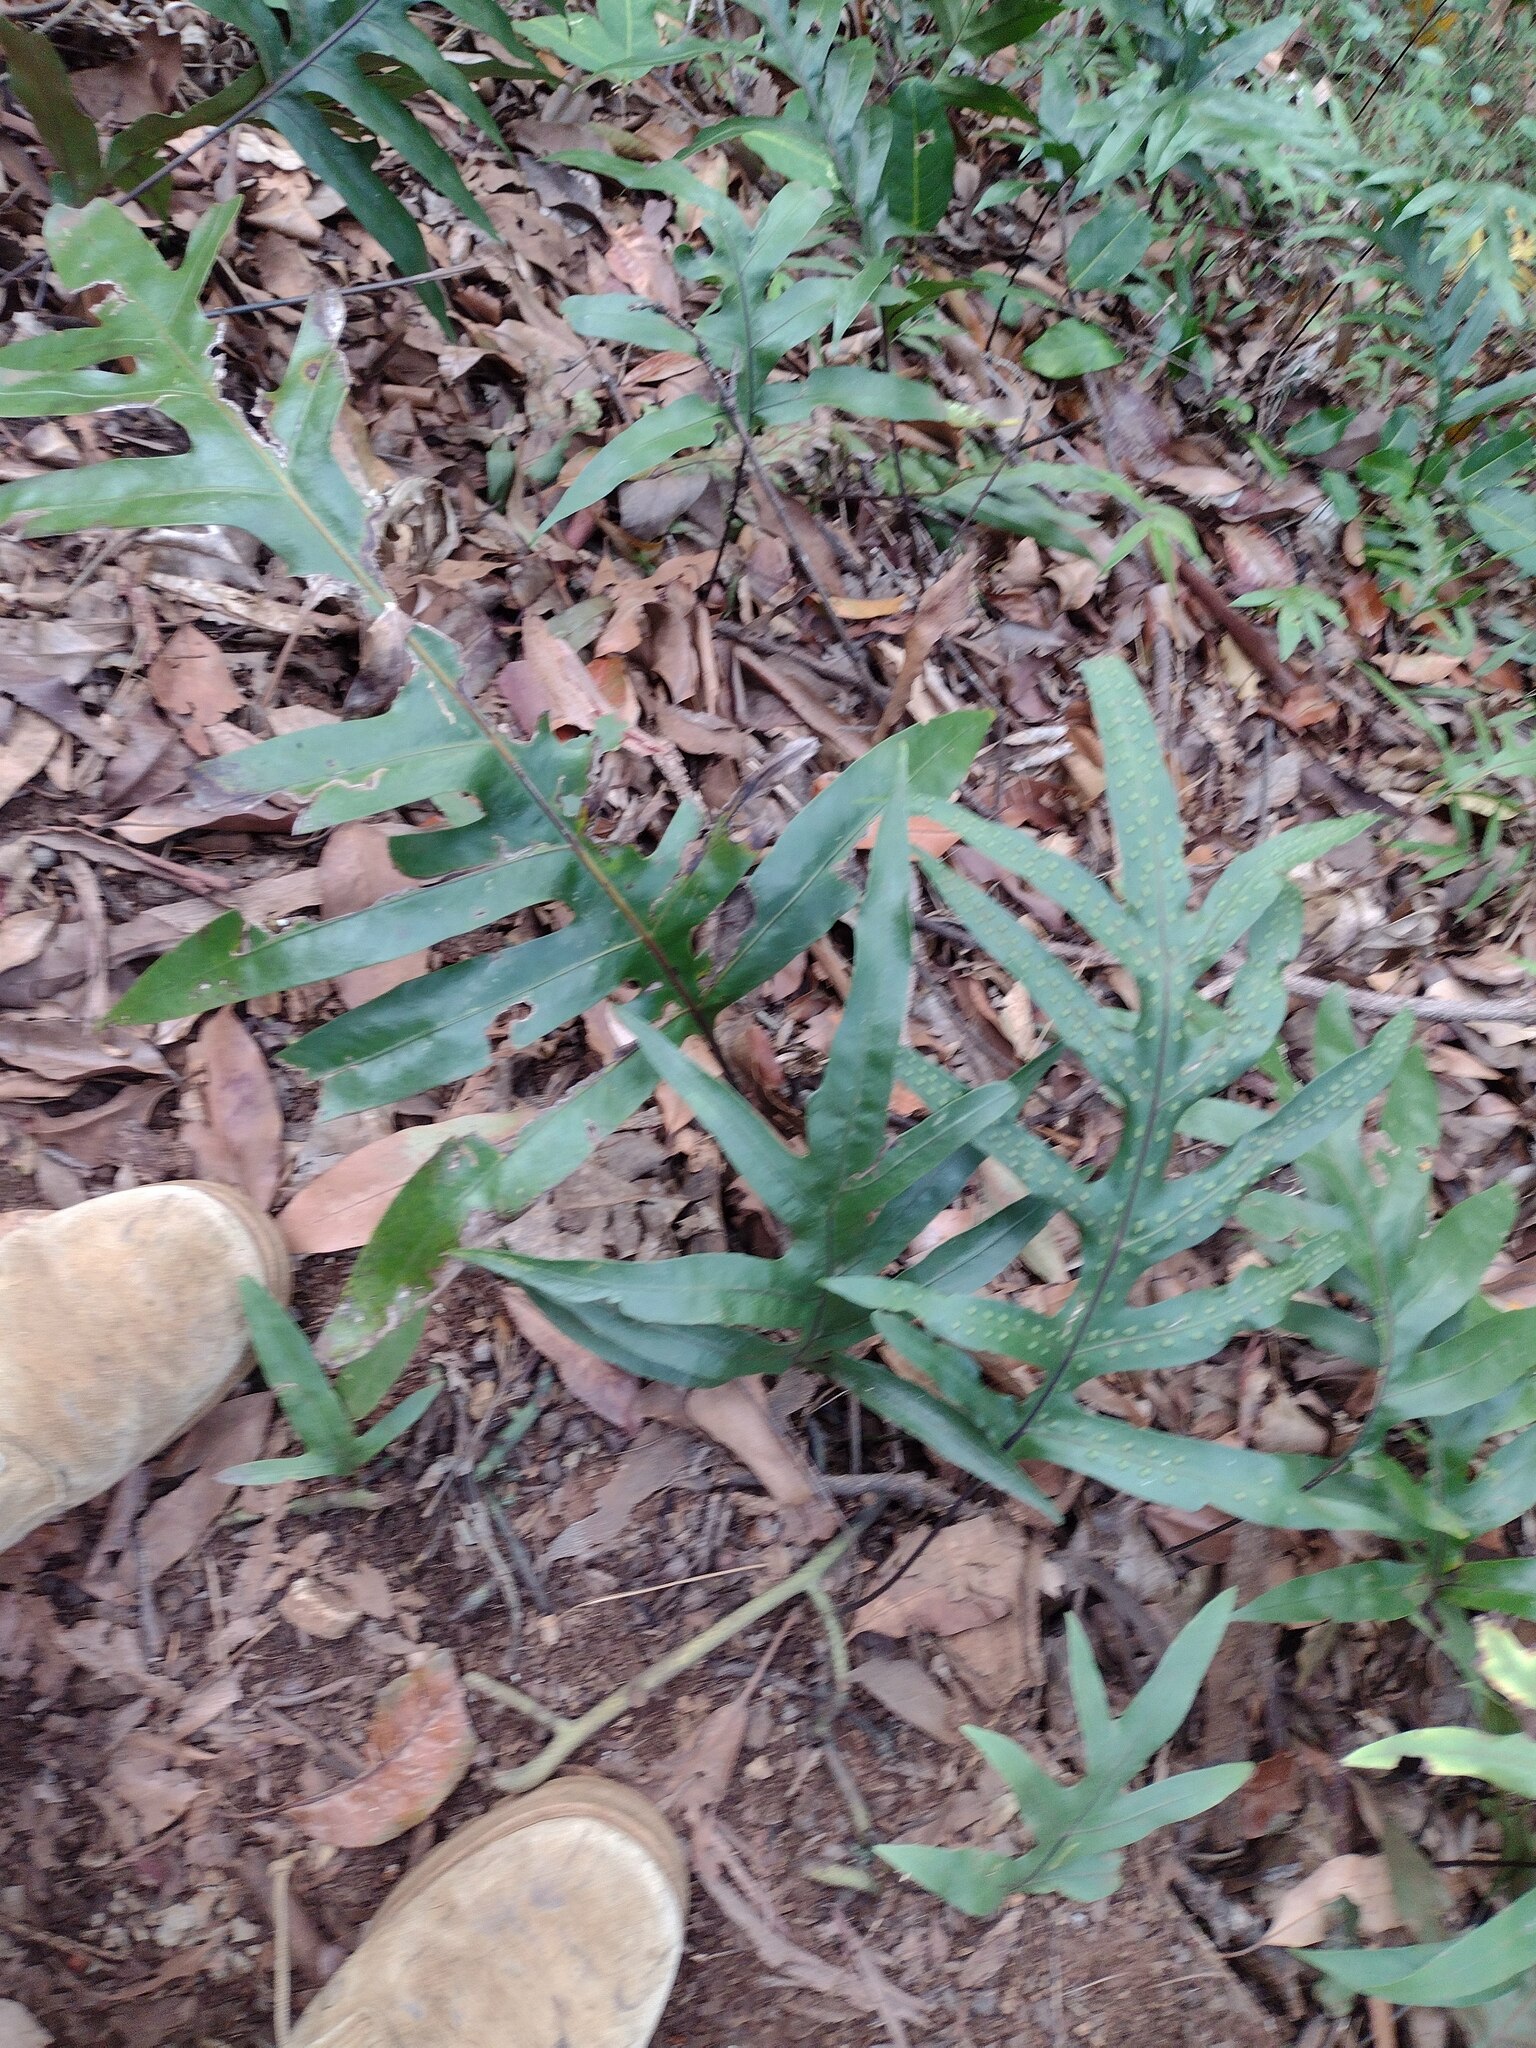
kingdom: Plantae
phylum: Tracheophyta
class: Polypodiopsida
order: Polypodiales
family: Polypodiaceae
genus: Microsorum
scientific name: Microsorum grossum
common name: Musk fern
